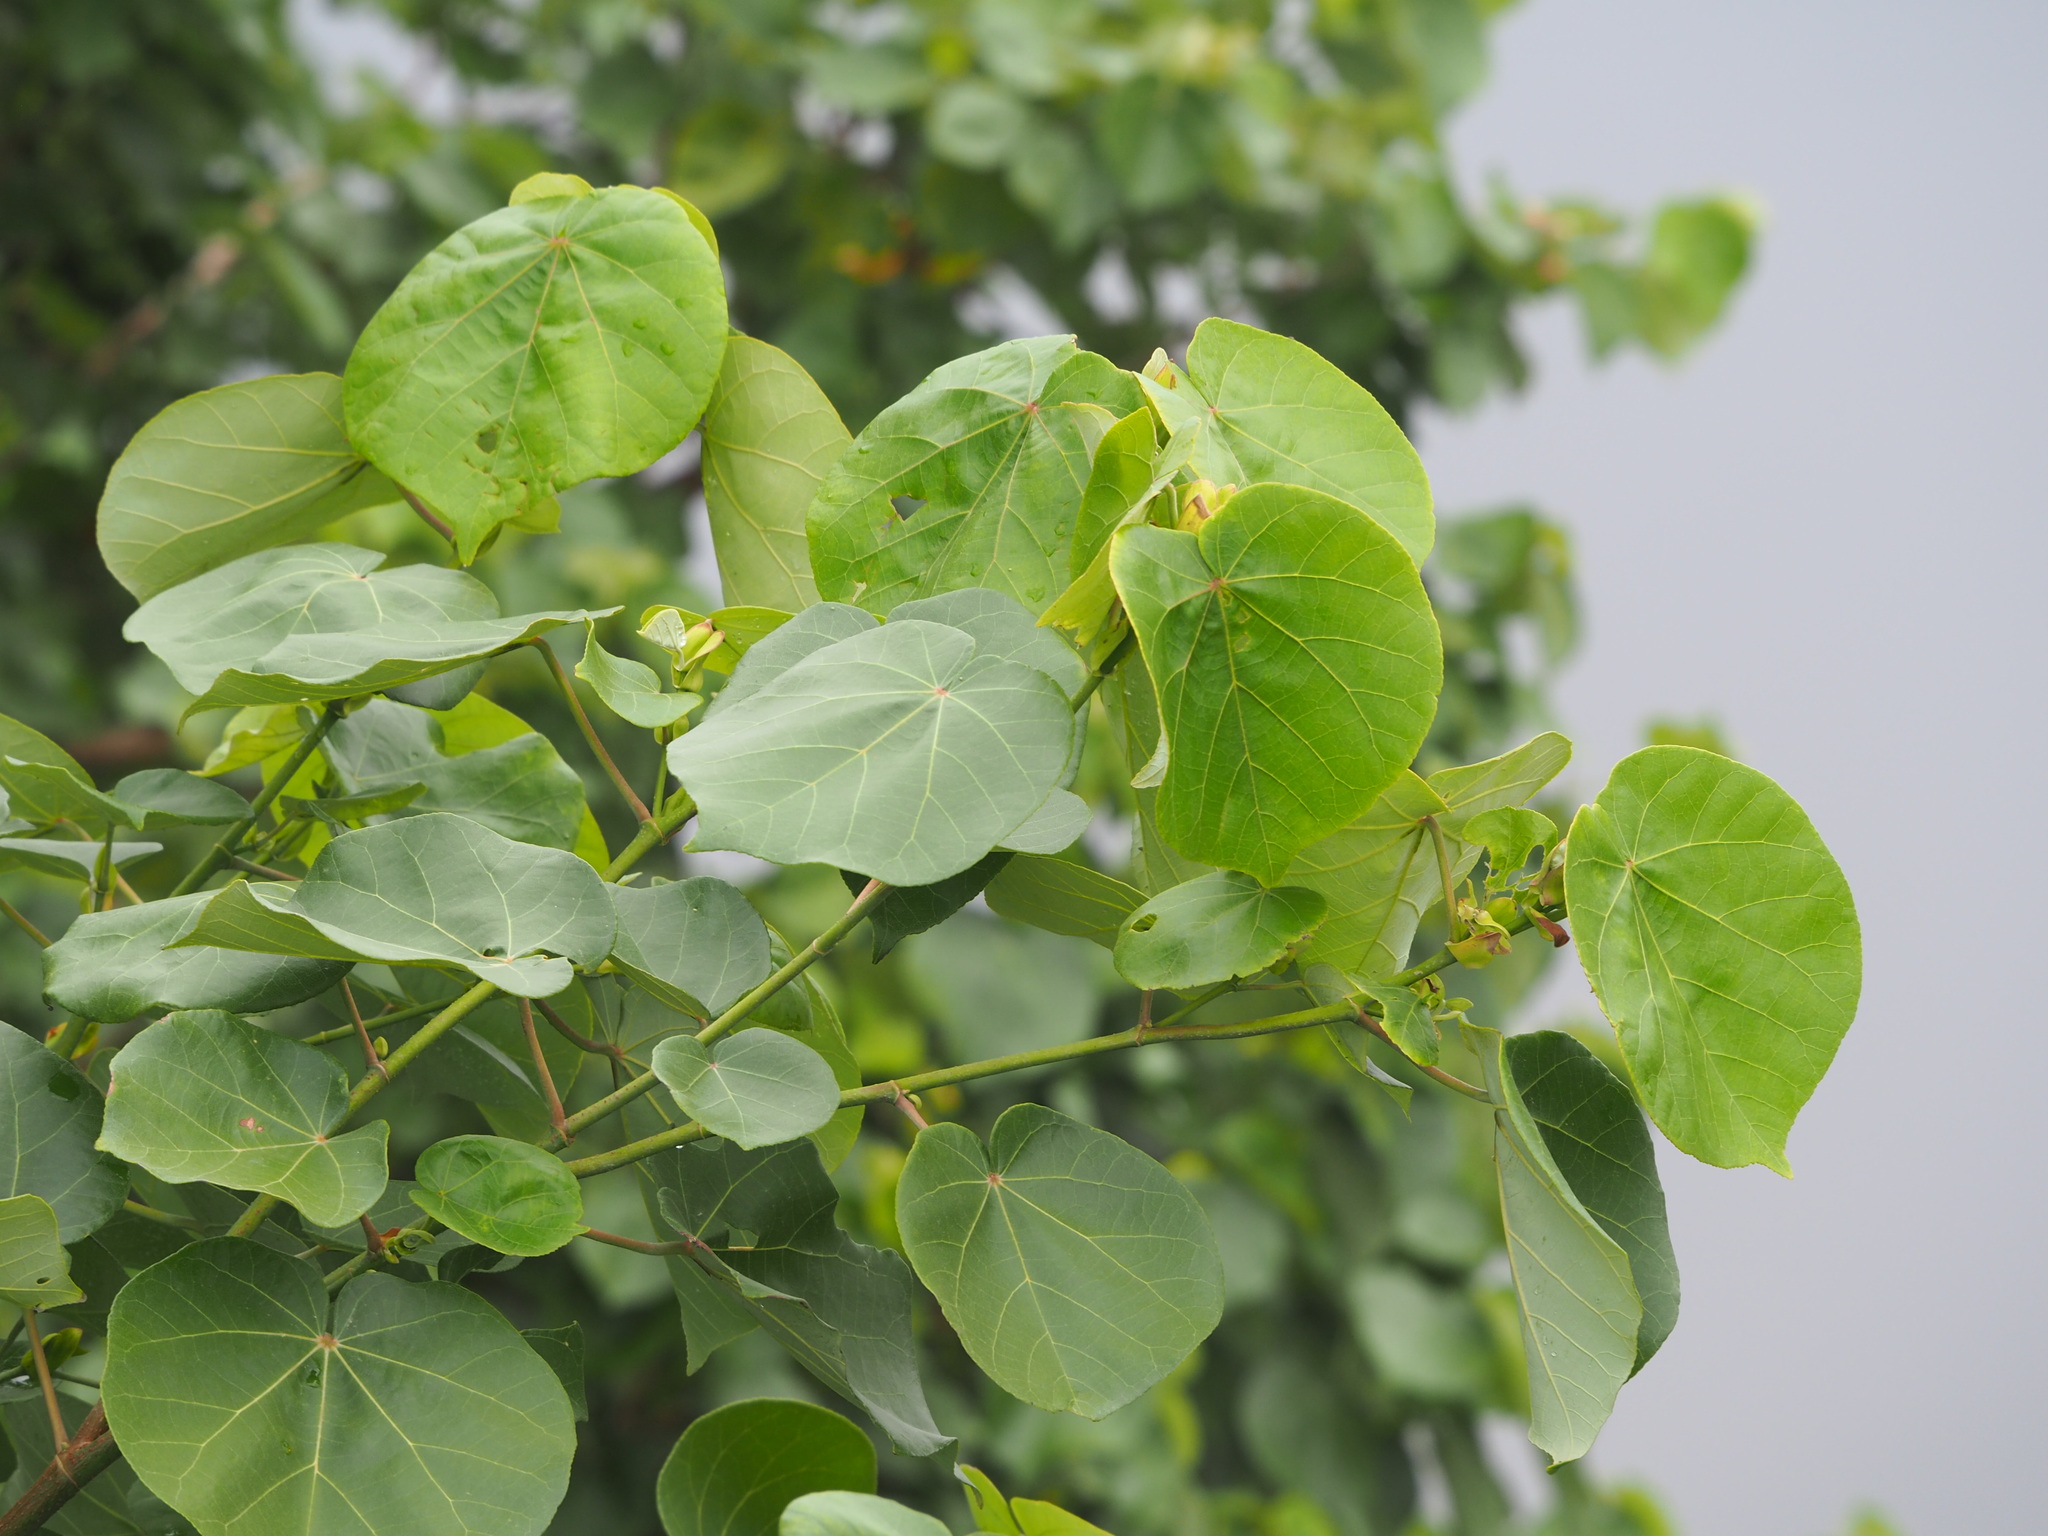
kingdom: Plantae
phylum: Tracheophyta
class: Magnoliopsida
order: Malvales
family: Malvaceae
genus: Talipariti
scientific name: Talipariti tiliaceum
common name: Sea hibiscus
